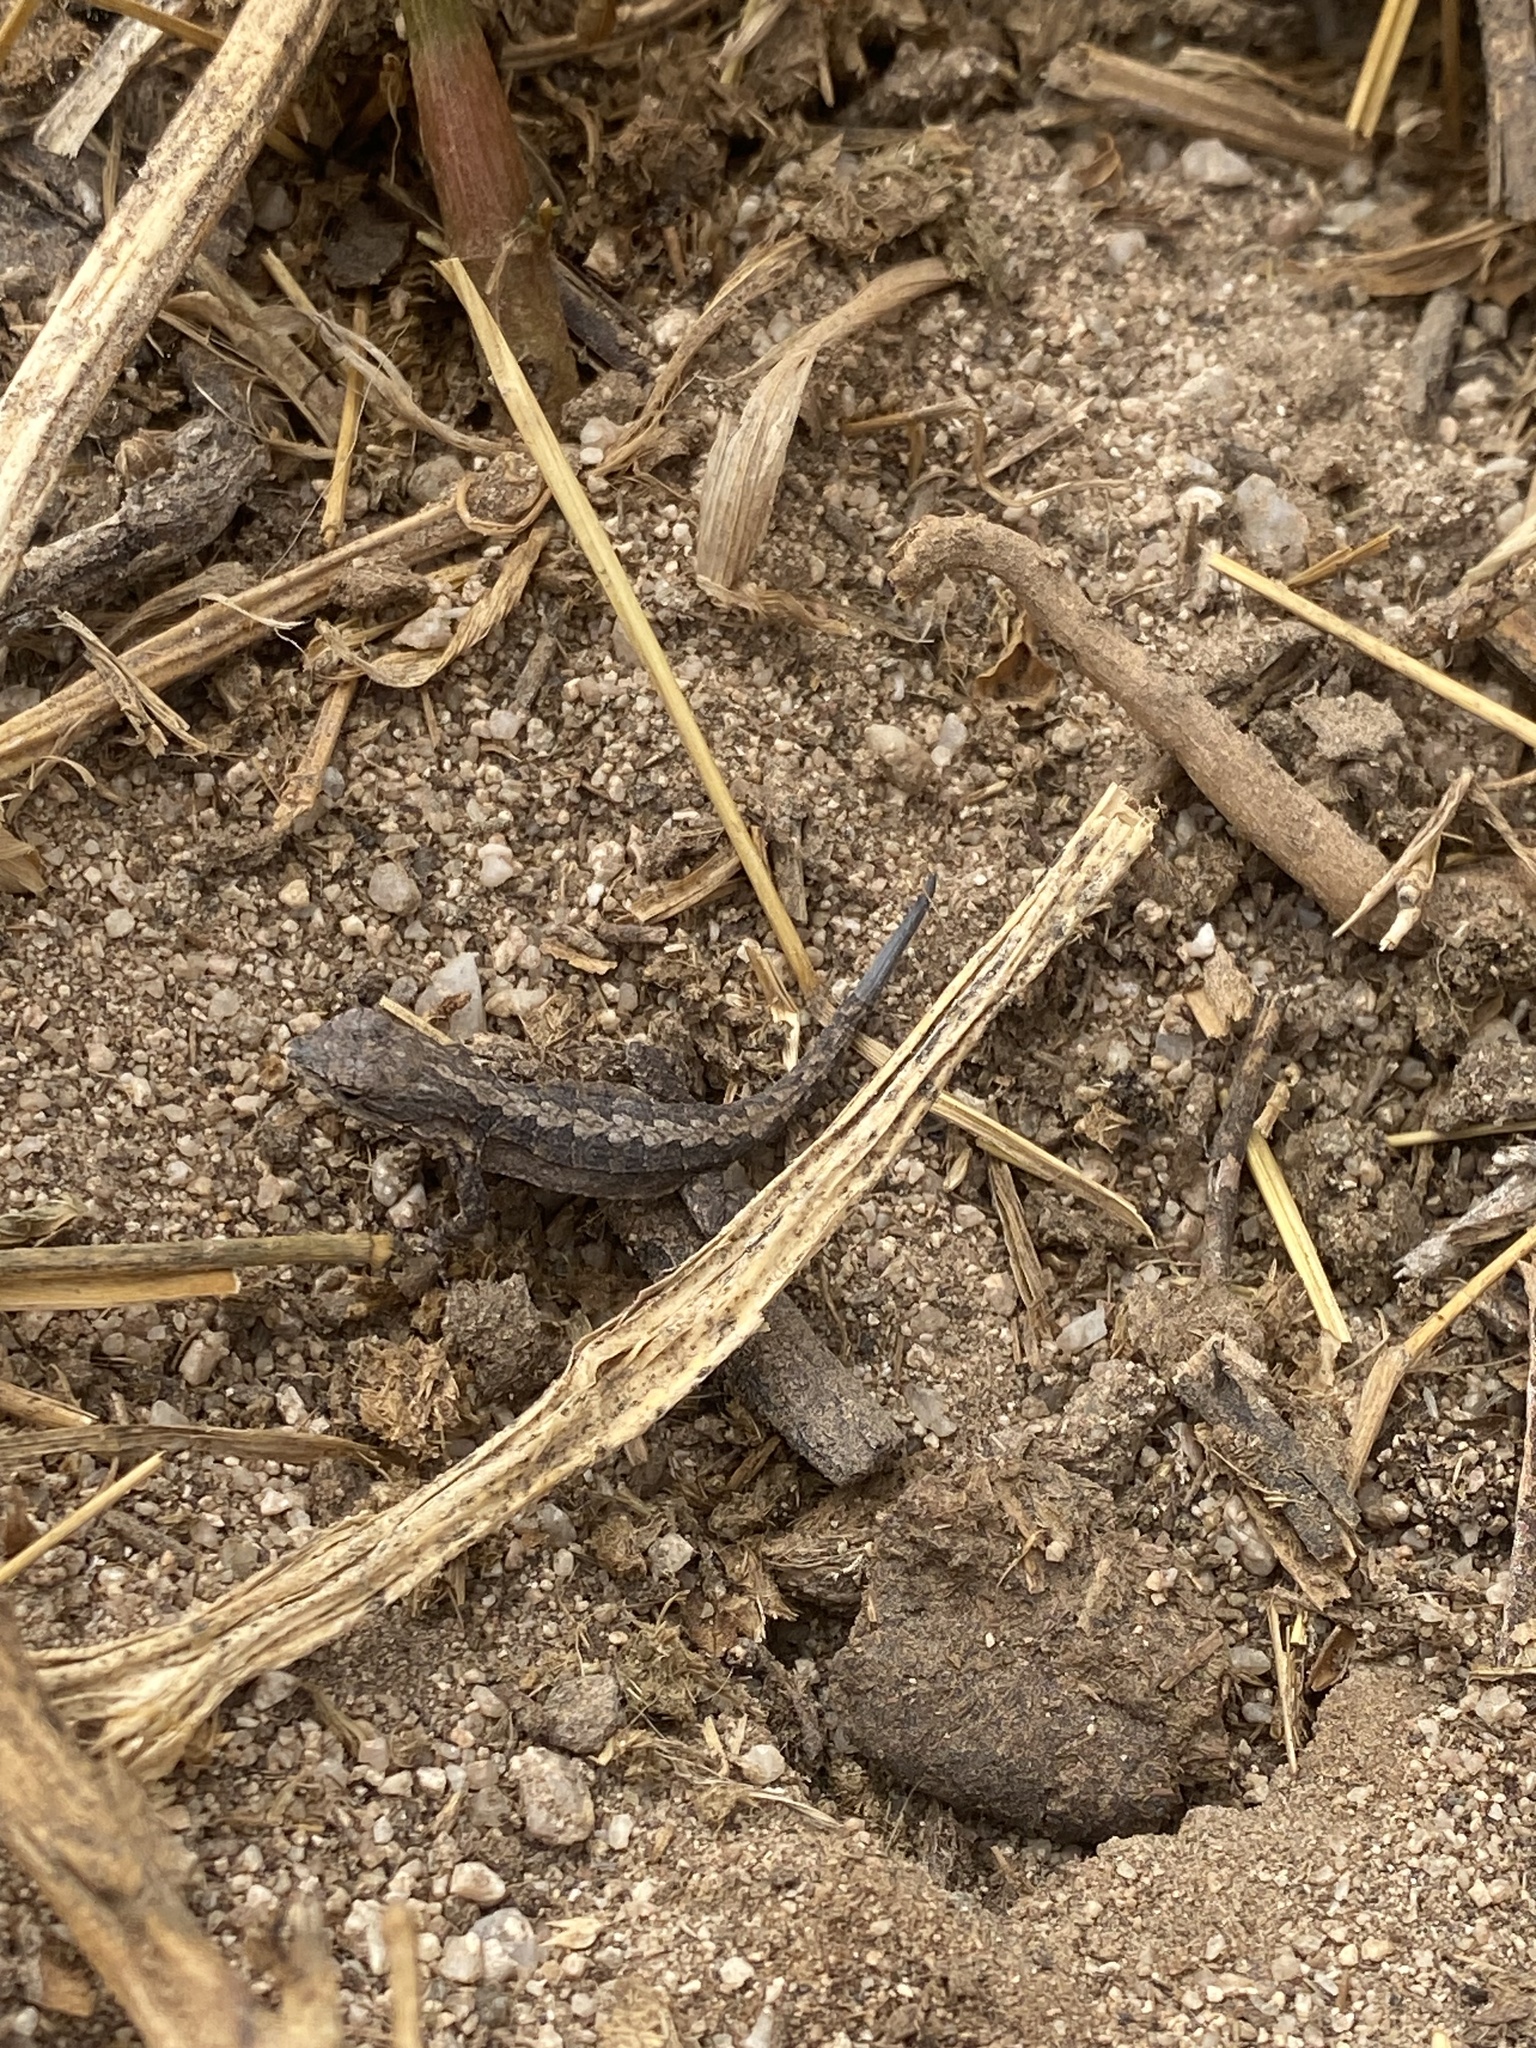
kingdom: Animalia
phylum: Chordata
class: Squamata
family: Phrynosomatidae
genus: Urosaurus
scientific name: Urosaurus nigricauda
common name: Baja california brush lizard
